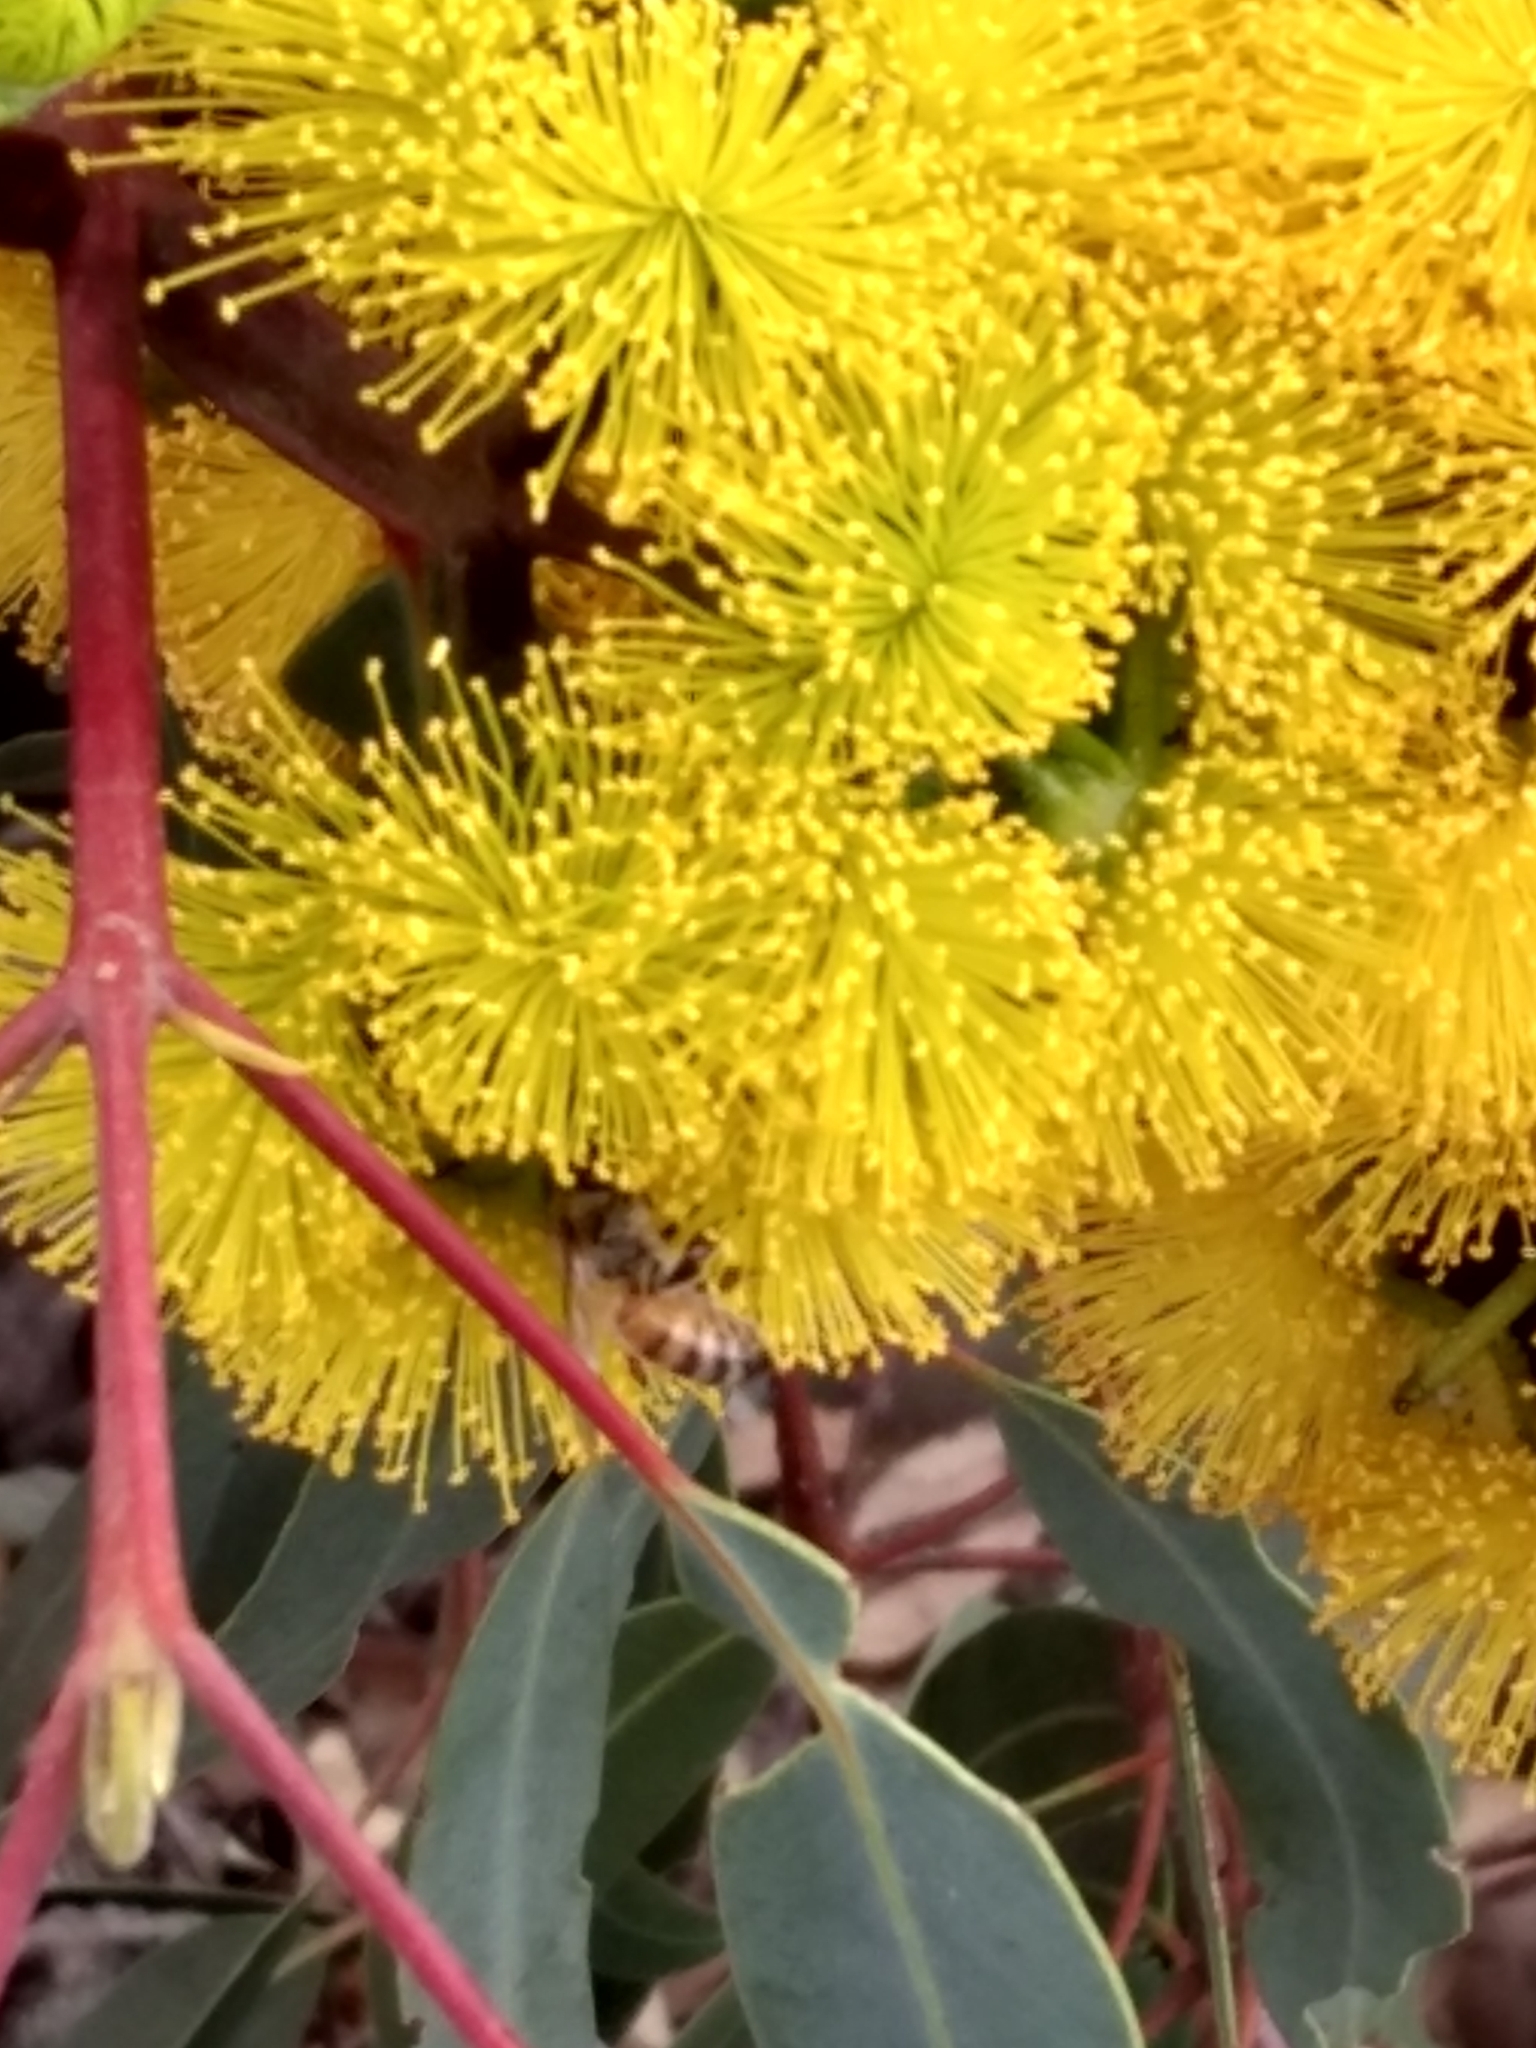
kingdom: Animalia
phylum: Arthropoda
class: Insecta
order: Hymenoptera
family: Apidae
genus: Apis
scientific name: Apis mellifera
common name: Honey bee
